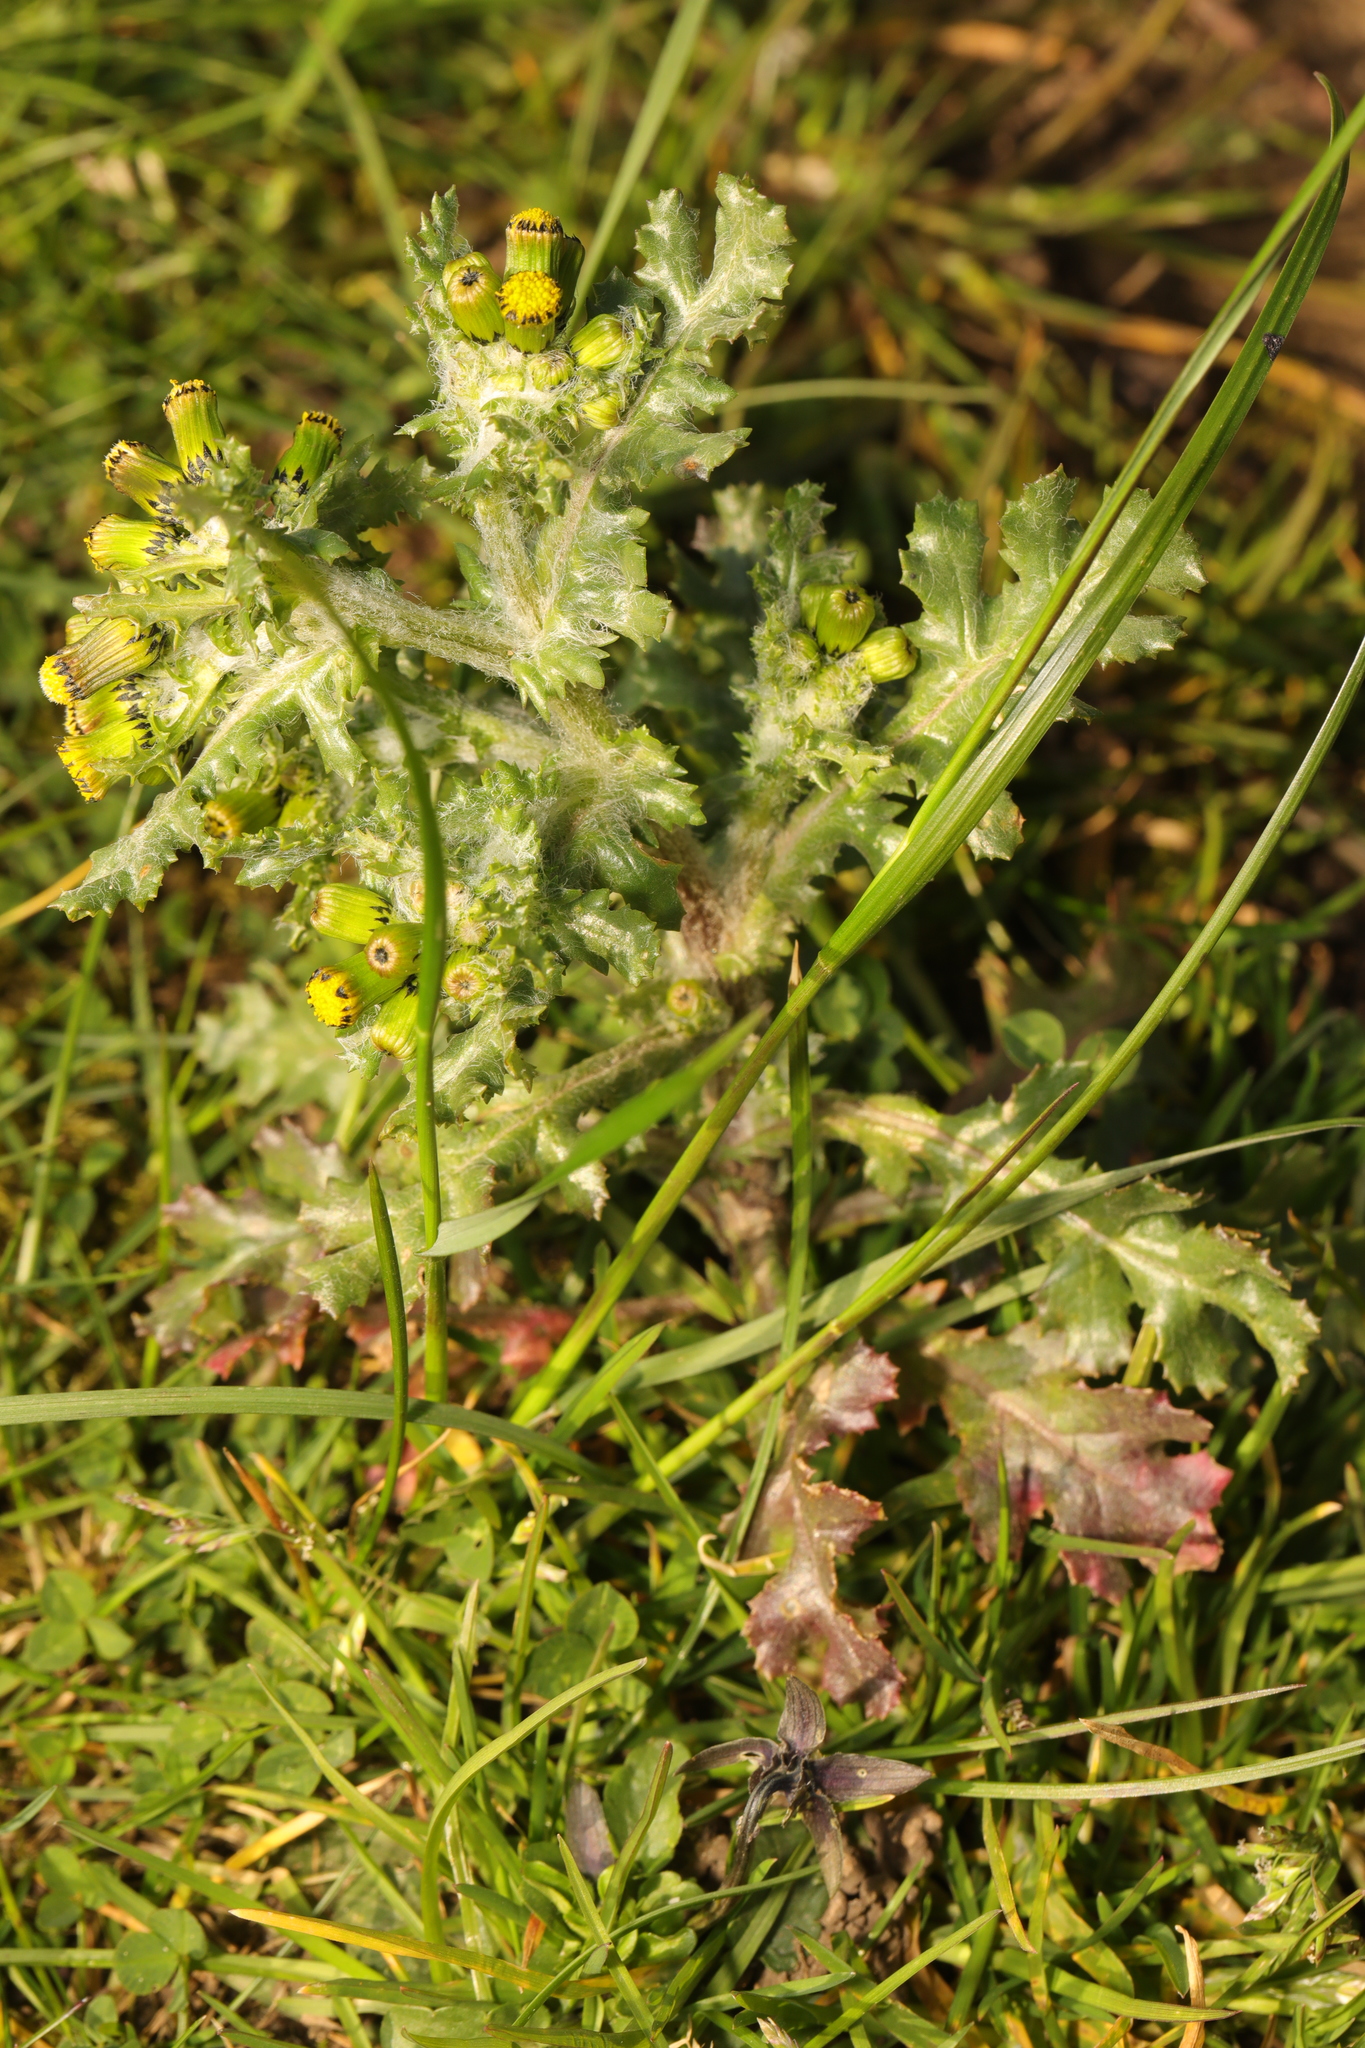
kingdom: Plantae
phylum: Tracheophyta
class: Magnoliopsida
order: Asterales
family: Asteraceae
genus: Senecio
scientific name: Senecio vulgaris
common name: Old-man-in-the-spring
